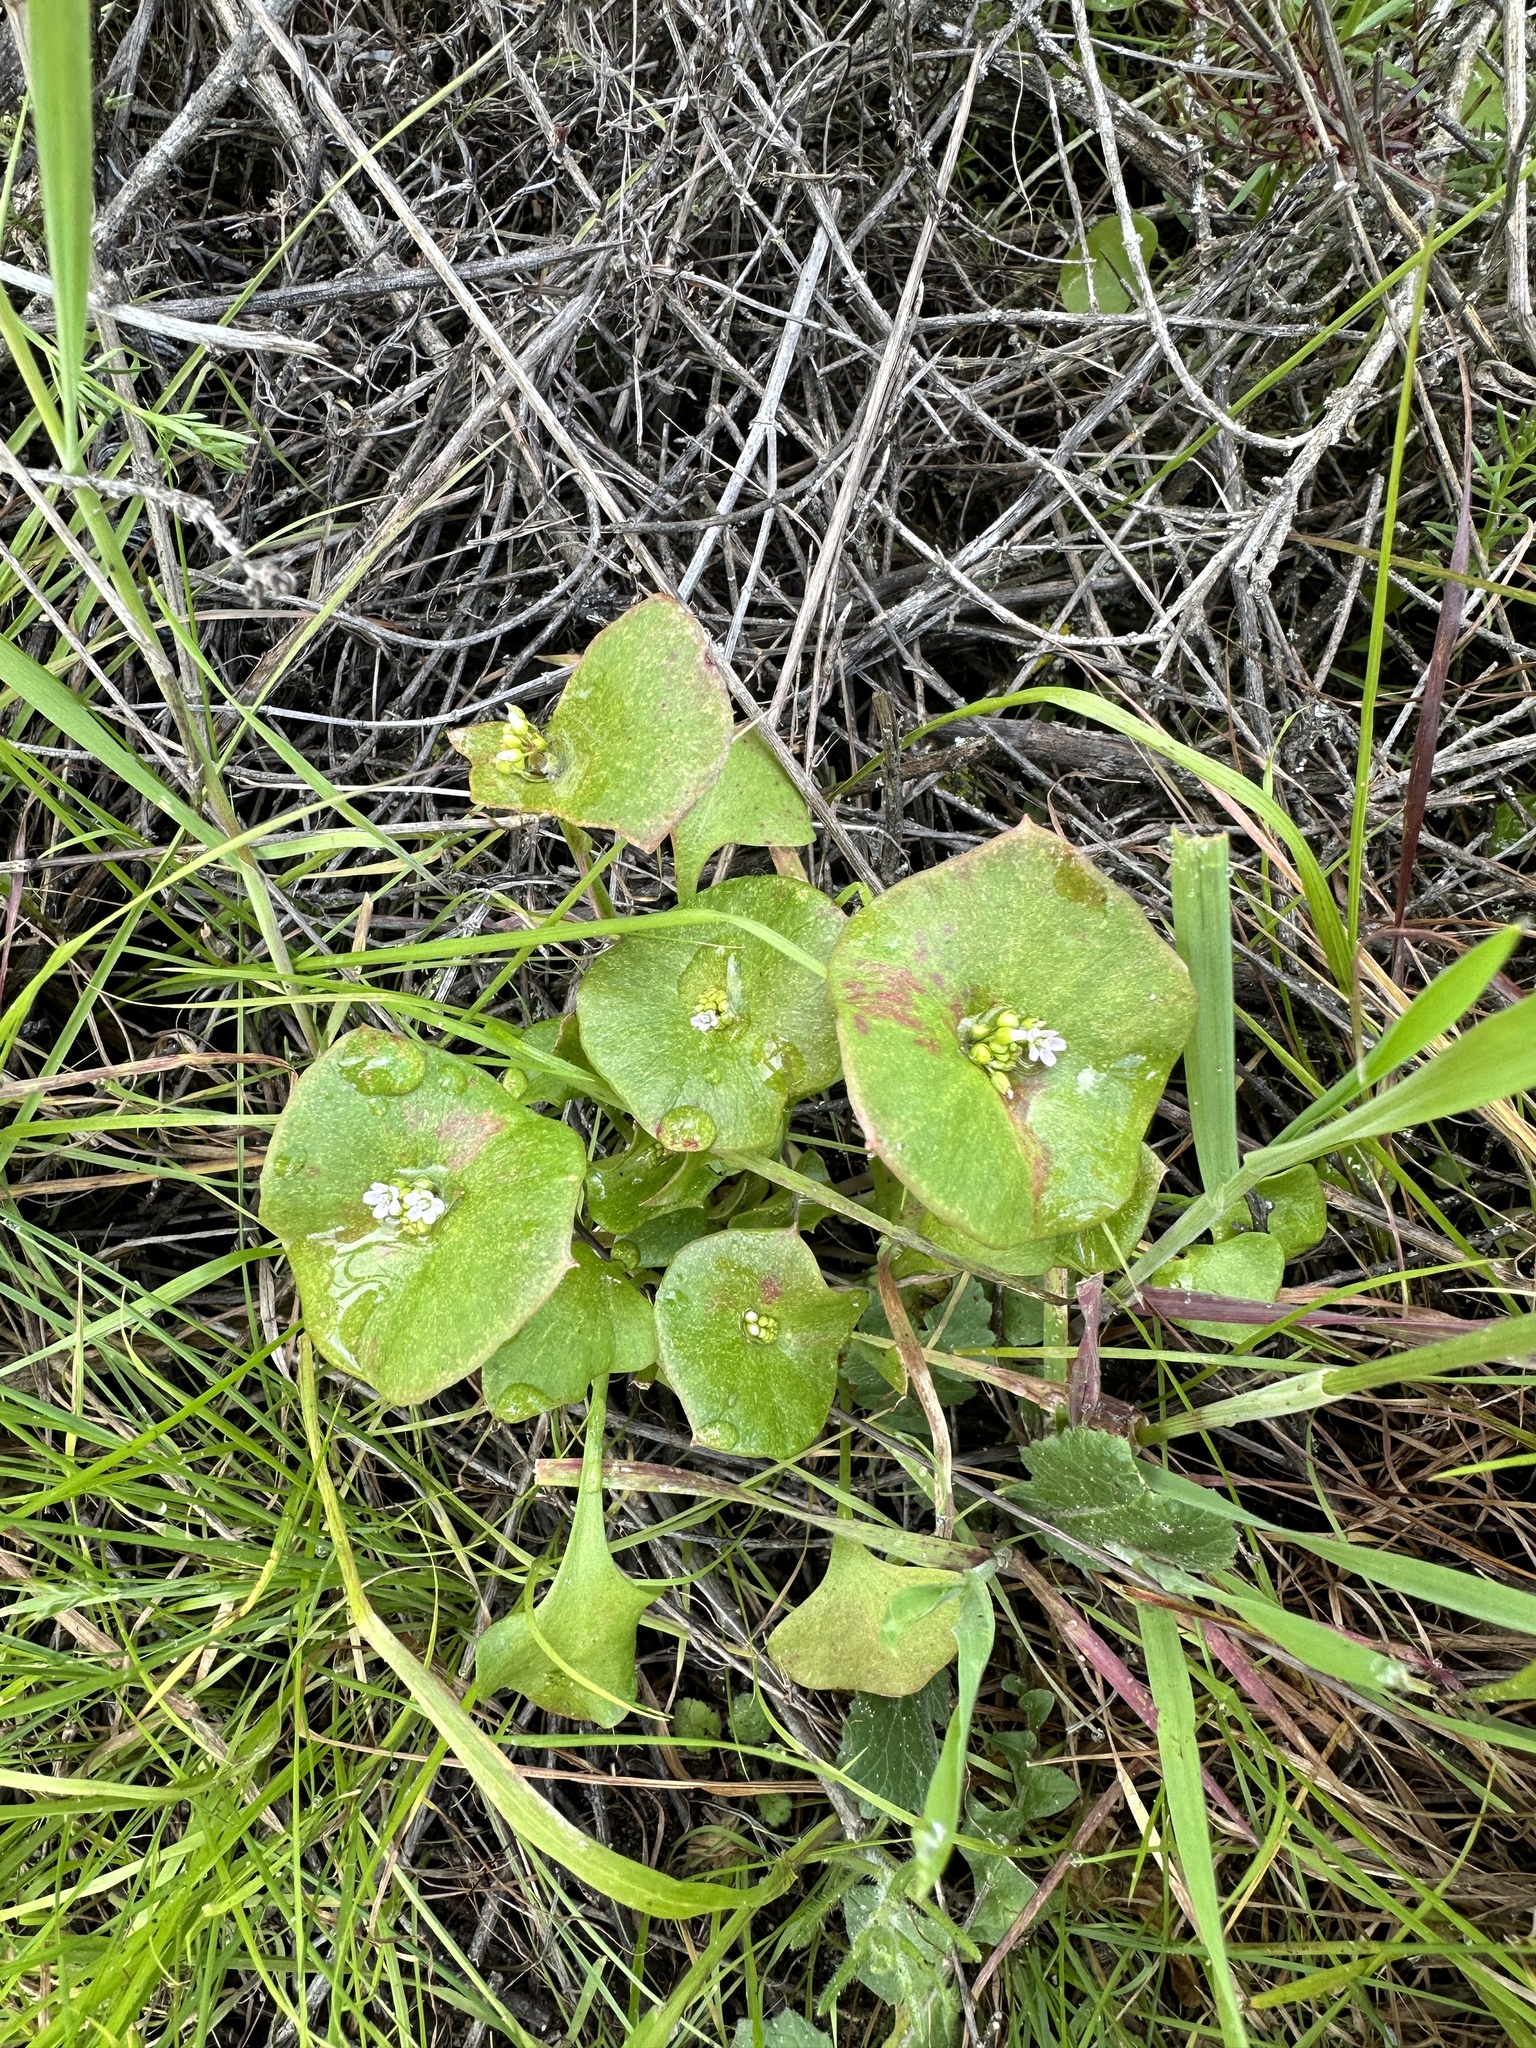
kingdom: Plantae
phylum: Tracheophyta
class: Magnoliopsida
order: Caryophyllales
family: Montiaceae
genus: Claytonia
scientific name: Claytonia perfoliata
